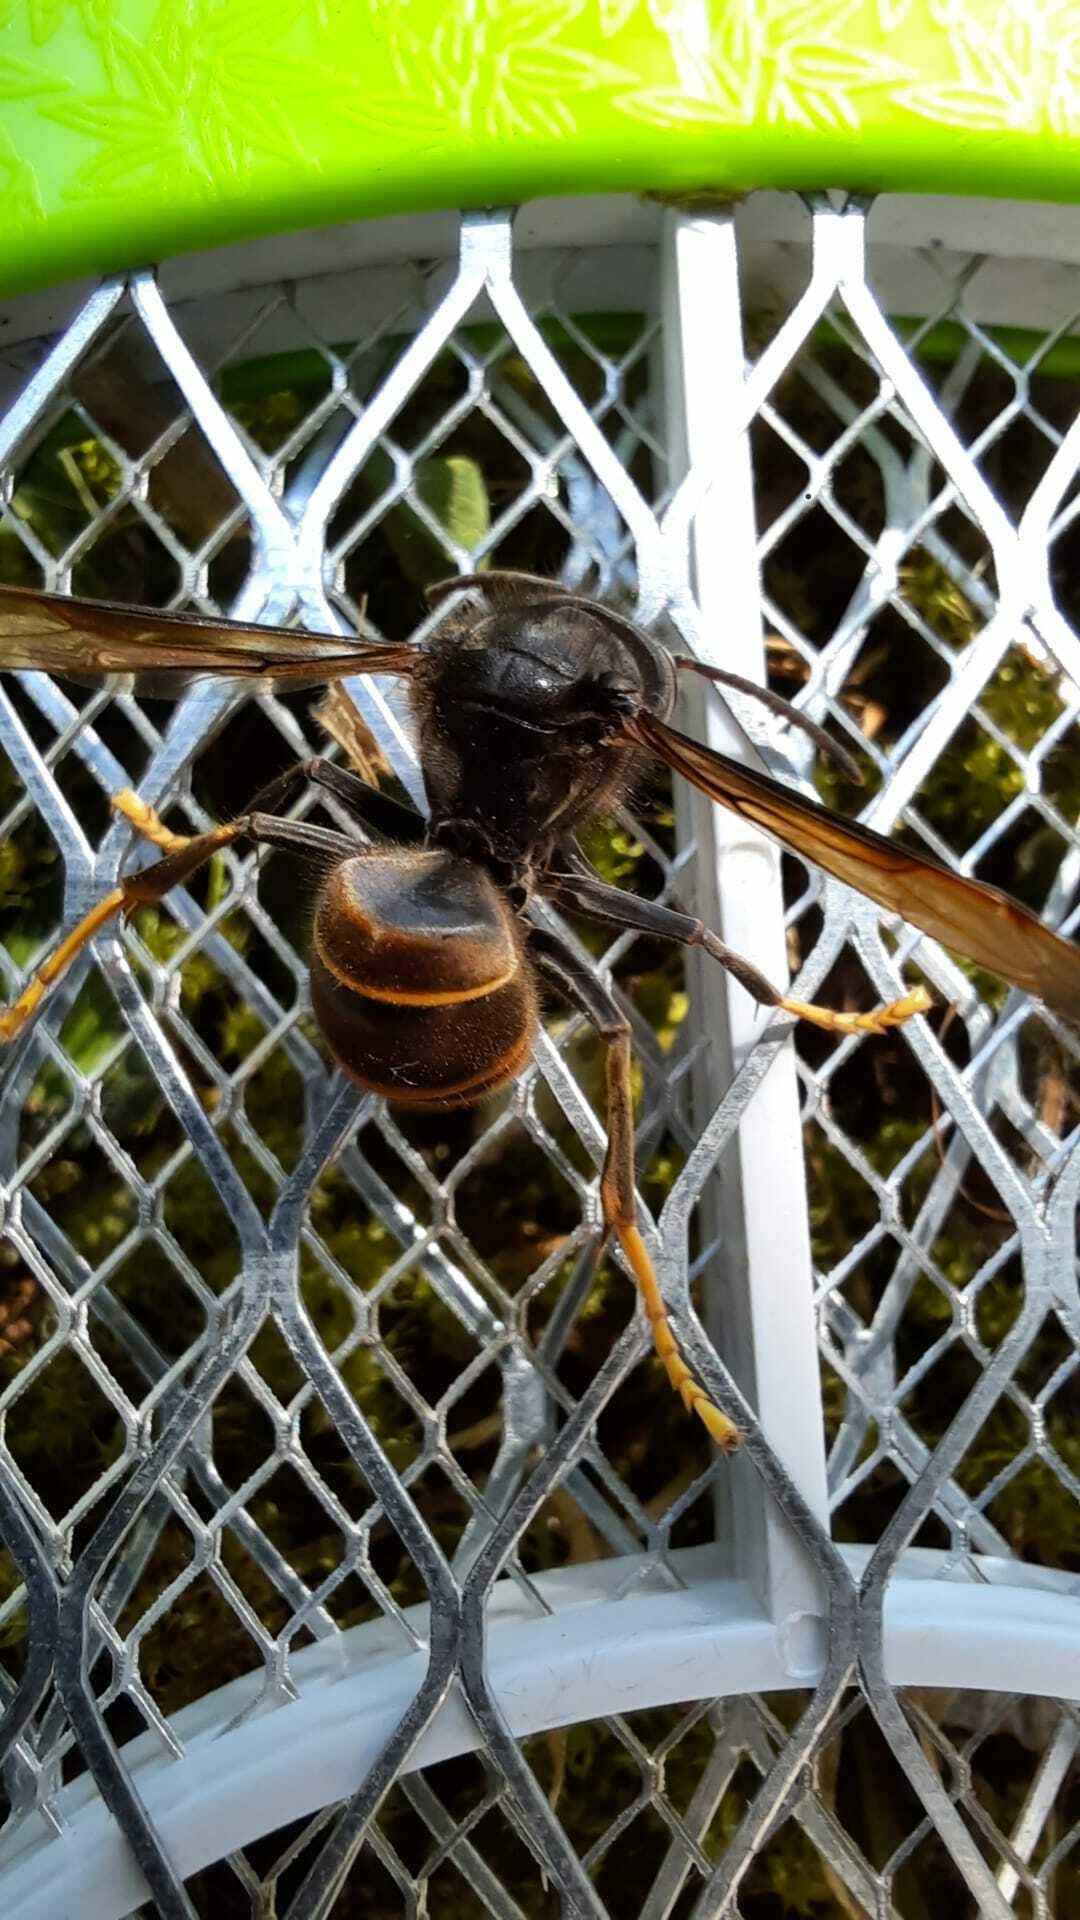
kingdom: Animalia
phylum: Arthropoda
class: Insecta
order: Hymenoptera
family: Vespidae
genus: Vespa
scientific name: Vespa velutina
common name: Asian hornet
